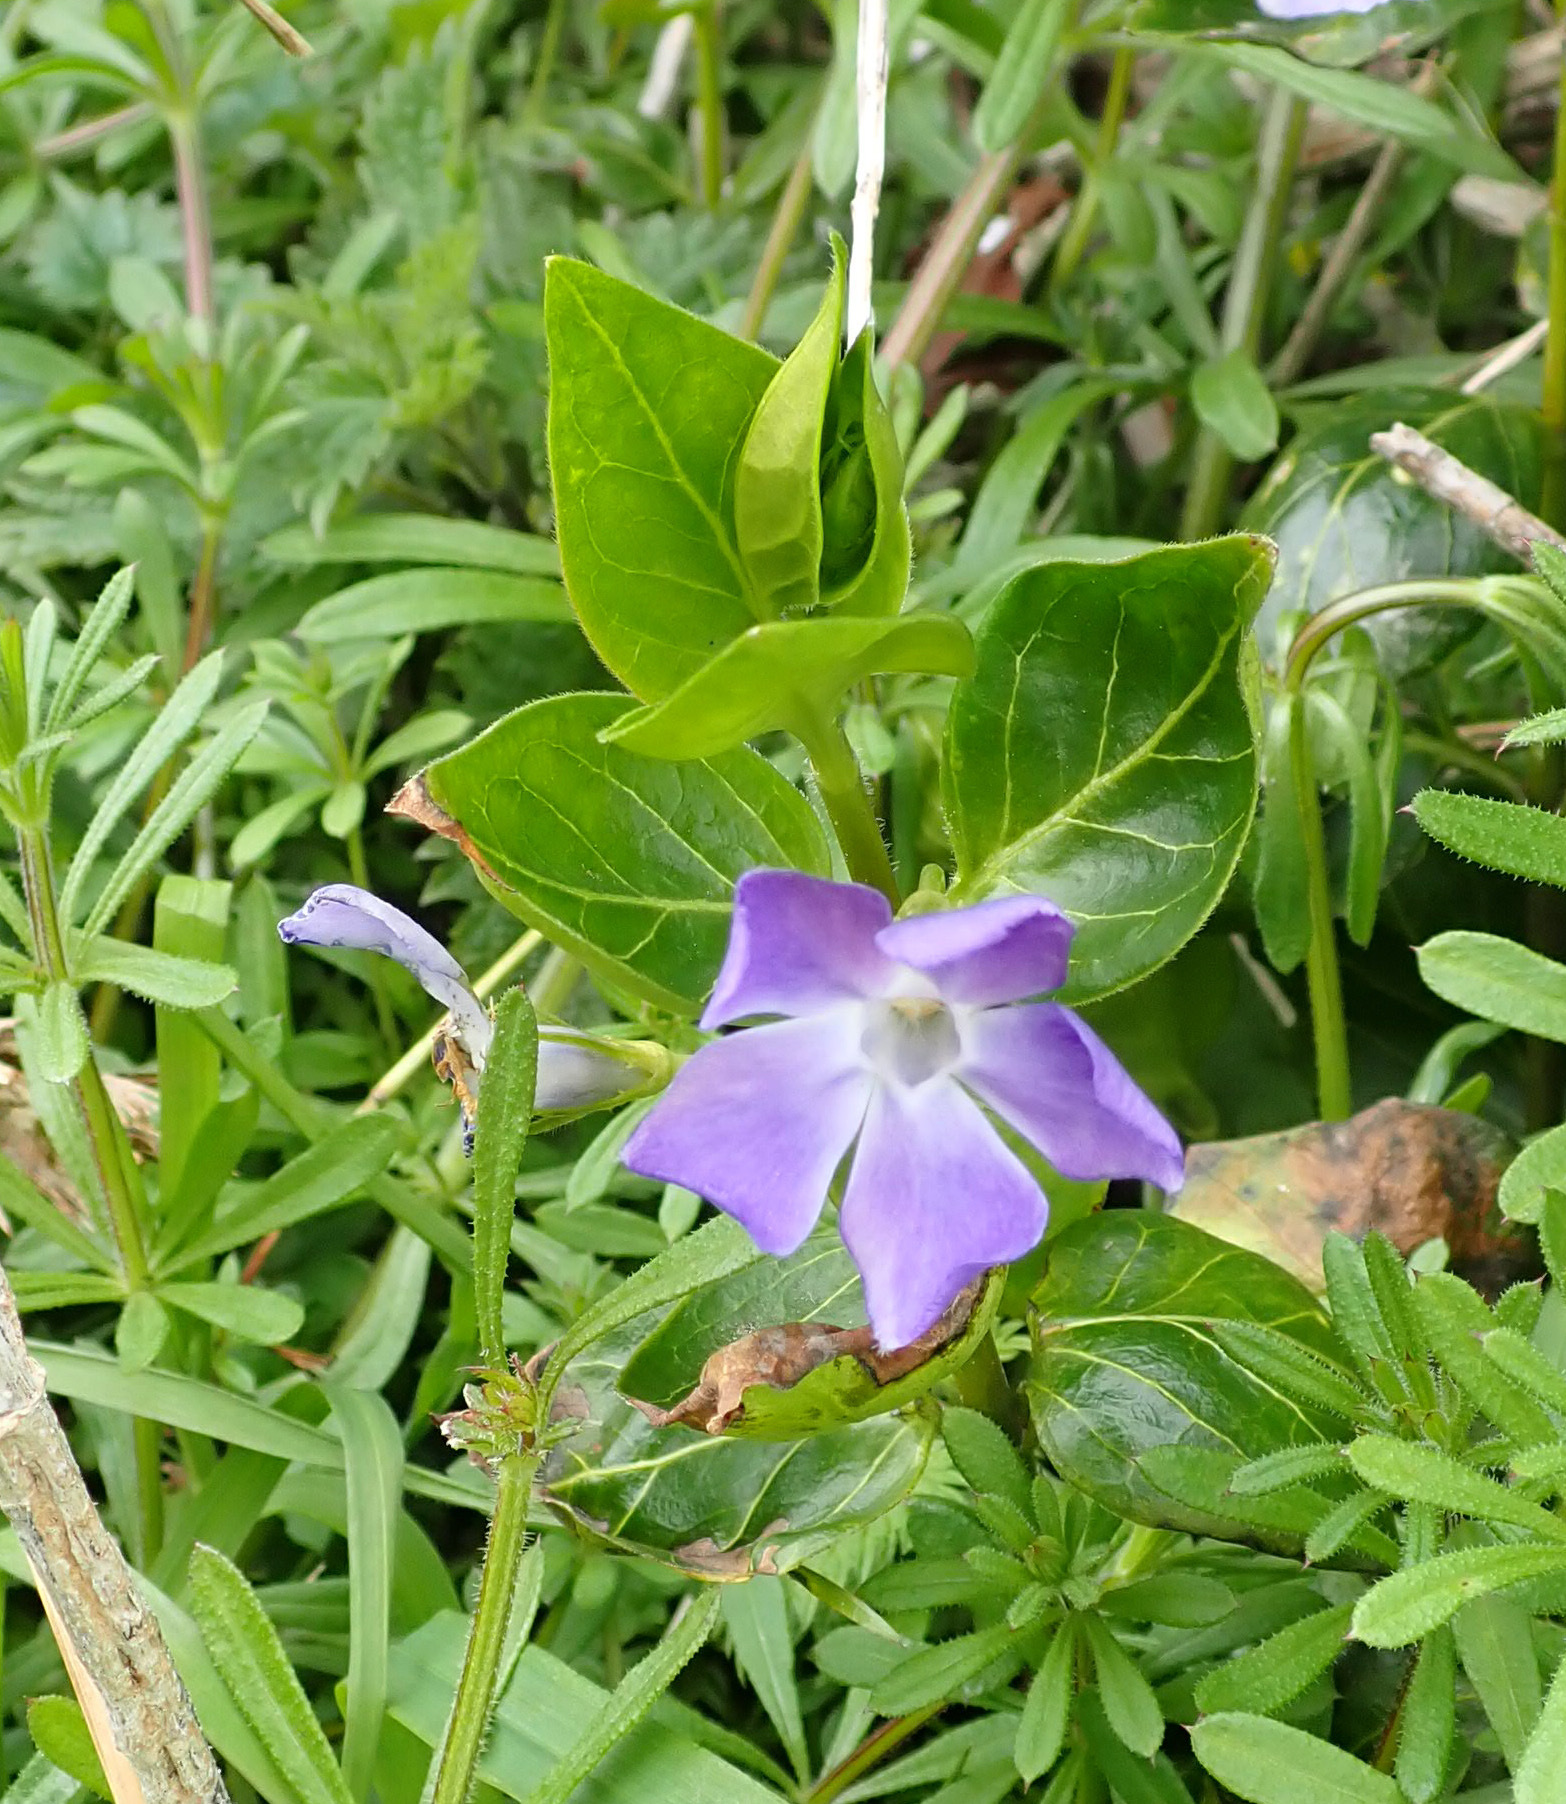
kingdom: Plantae
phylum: Tracheophyta
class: Magnoliopsida
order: Gentianales
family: Apocynaceae
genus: Vinca
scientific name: Vinca major
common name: Greater periwinkle
